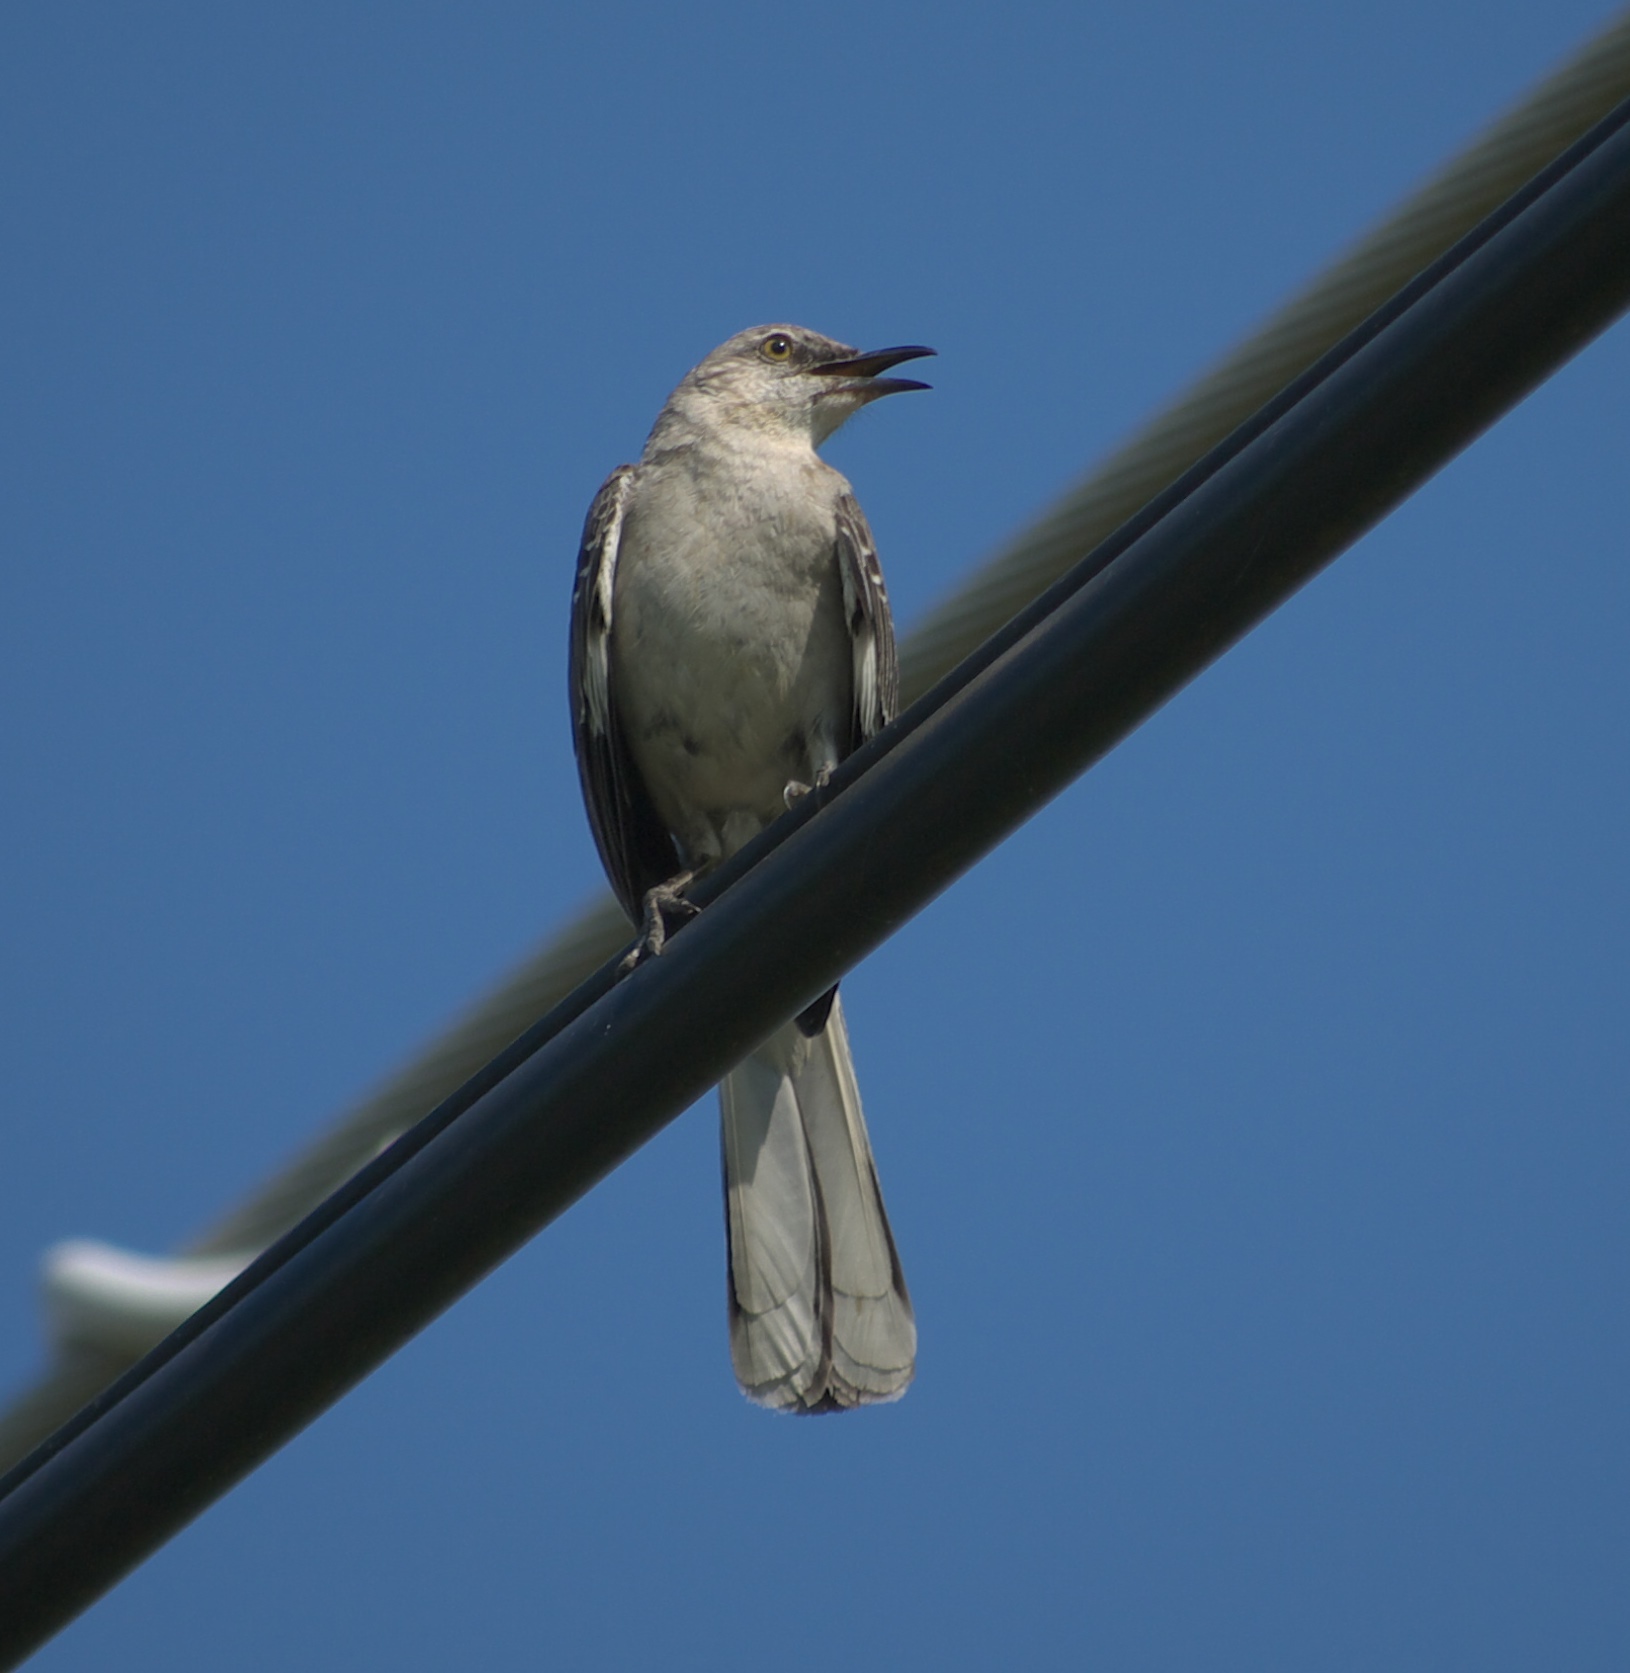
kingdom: Animalia
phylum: Chordata
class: Aves
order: Passeriformes
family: Mimidae
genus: Mimus
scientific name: Mimus polyglottos
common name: Northern mockingbird
